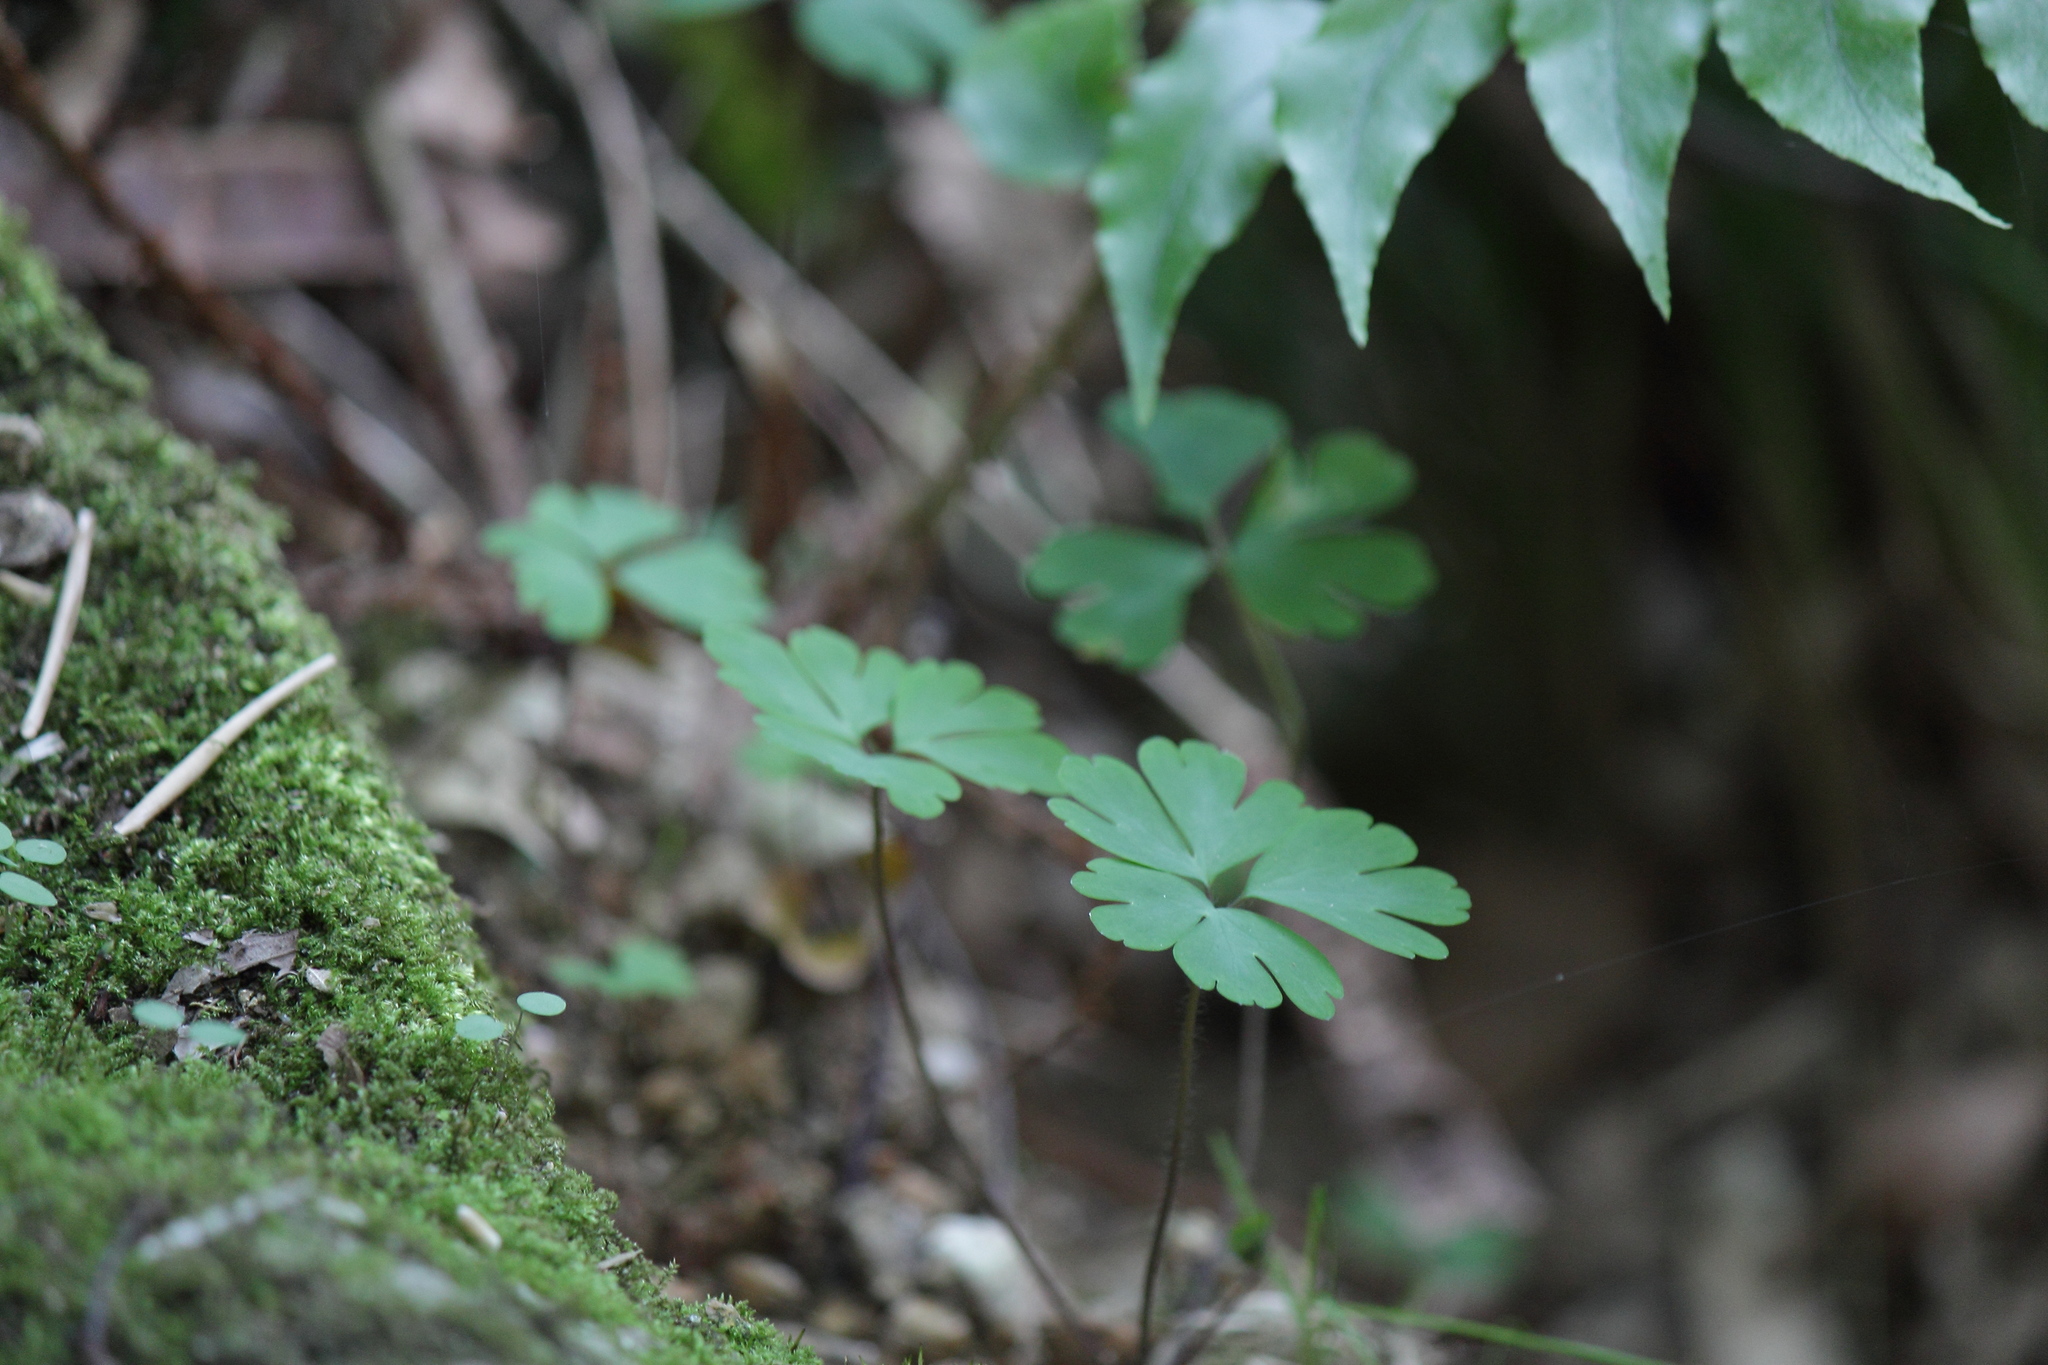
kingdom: Plantae
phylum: Tracheophyta
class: Magnoliopsida
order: Ranunculales
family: Ranunculaceae
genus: Semiaquilegia
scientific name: Semiaquilegia adoxoides
